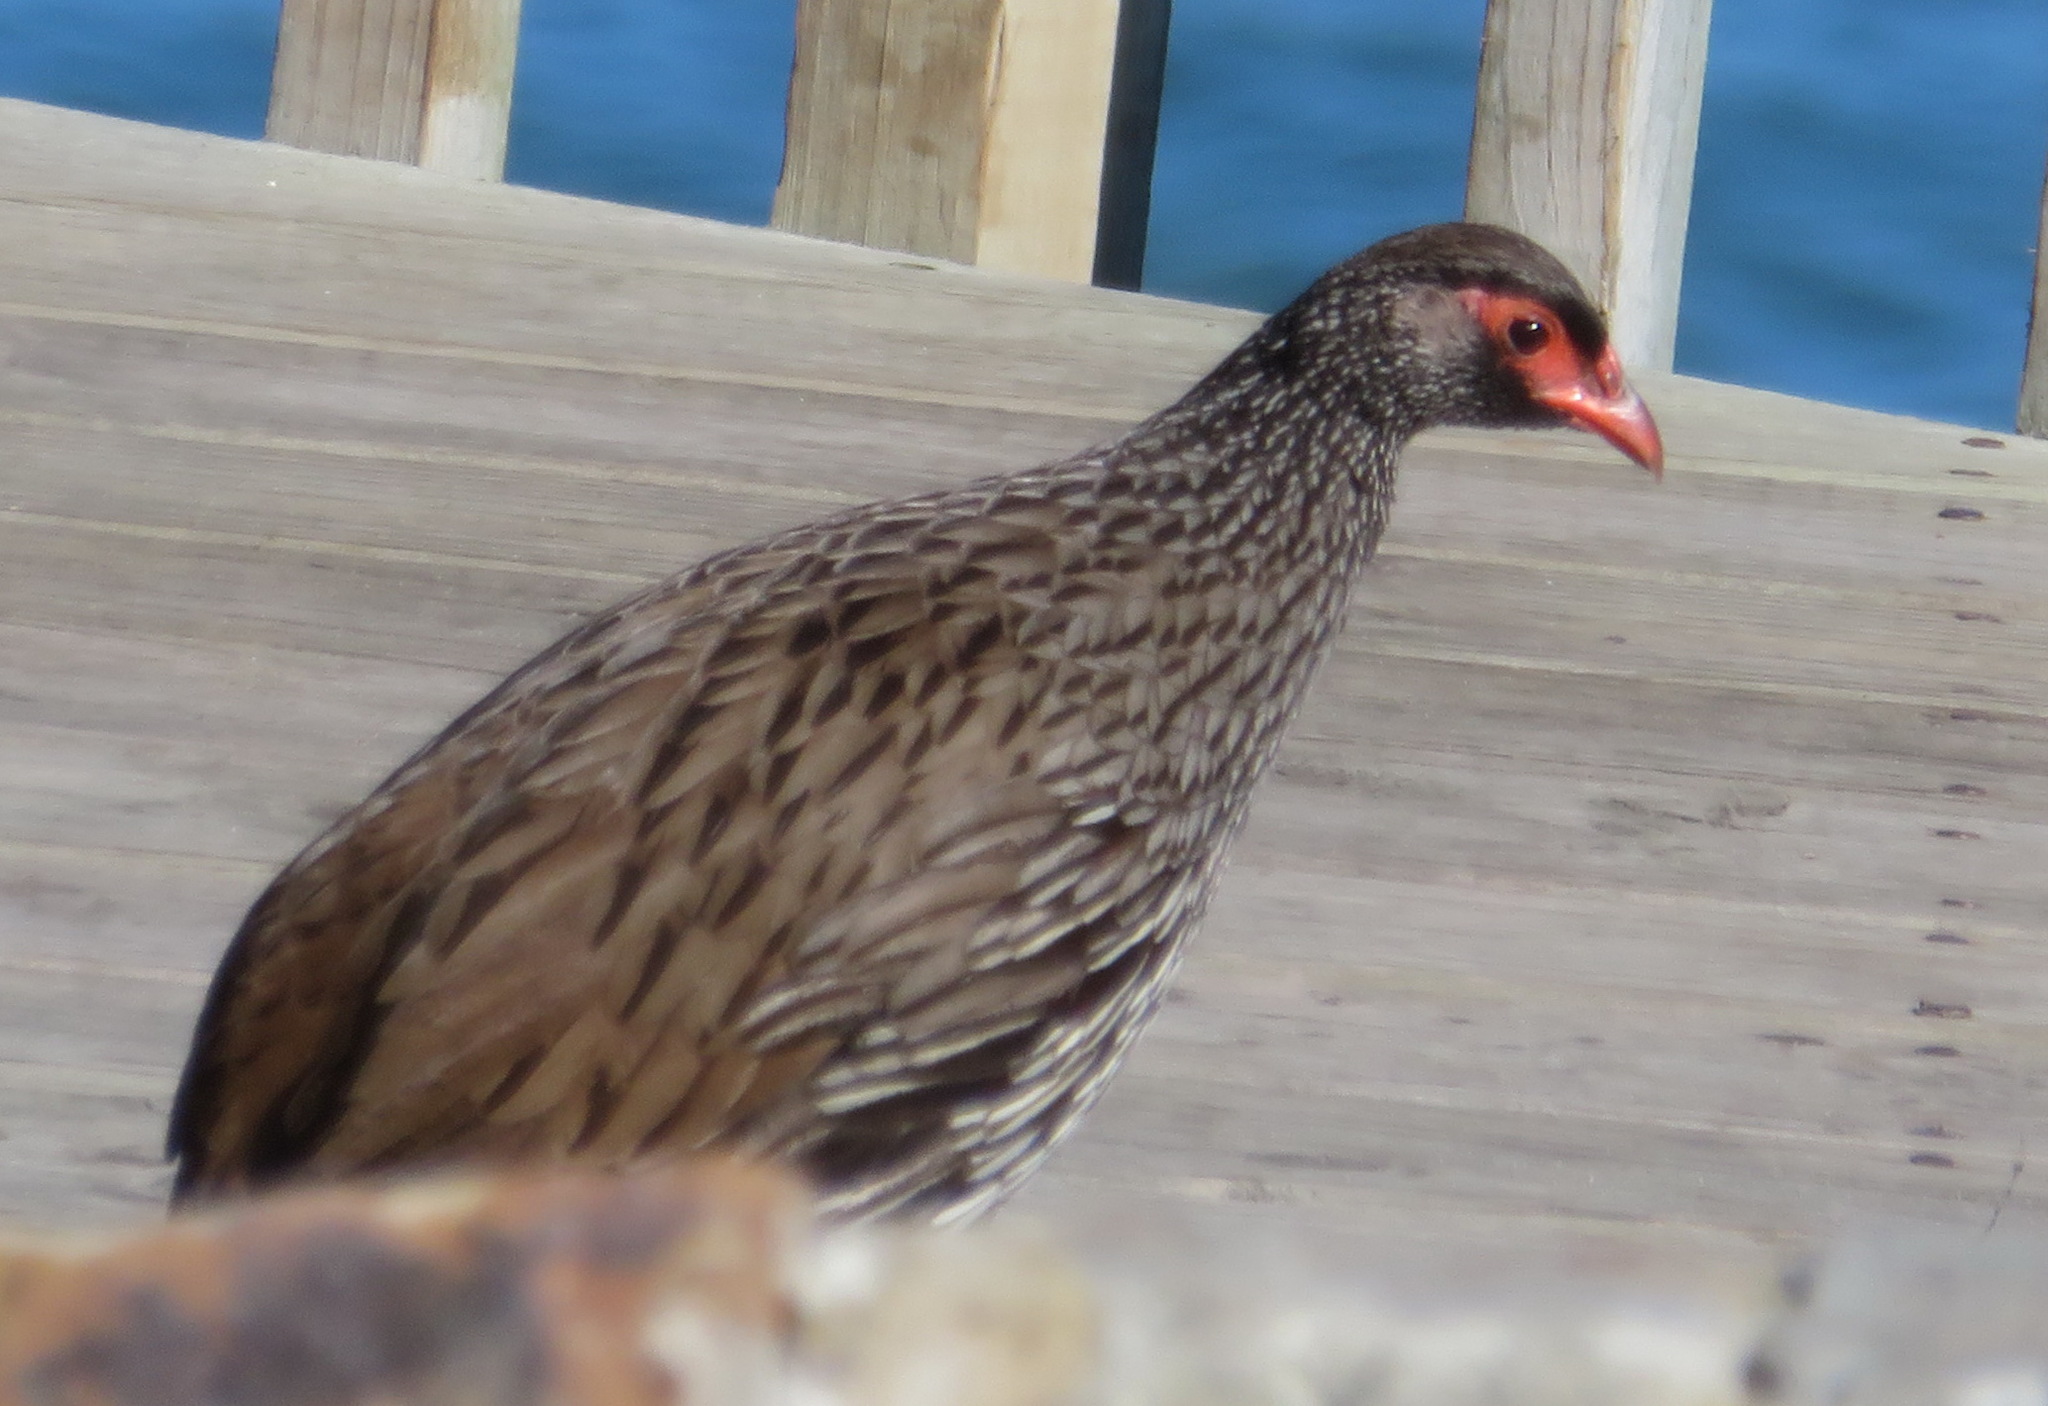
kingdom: Animalia
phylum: Chordata
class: Aves
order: Galliformes
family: Phasianidae
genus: Pternistis
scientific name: Pternistis afer
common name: Red-necked spurfowl
